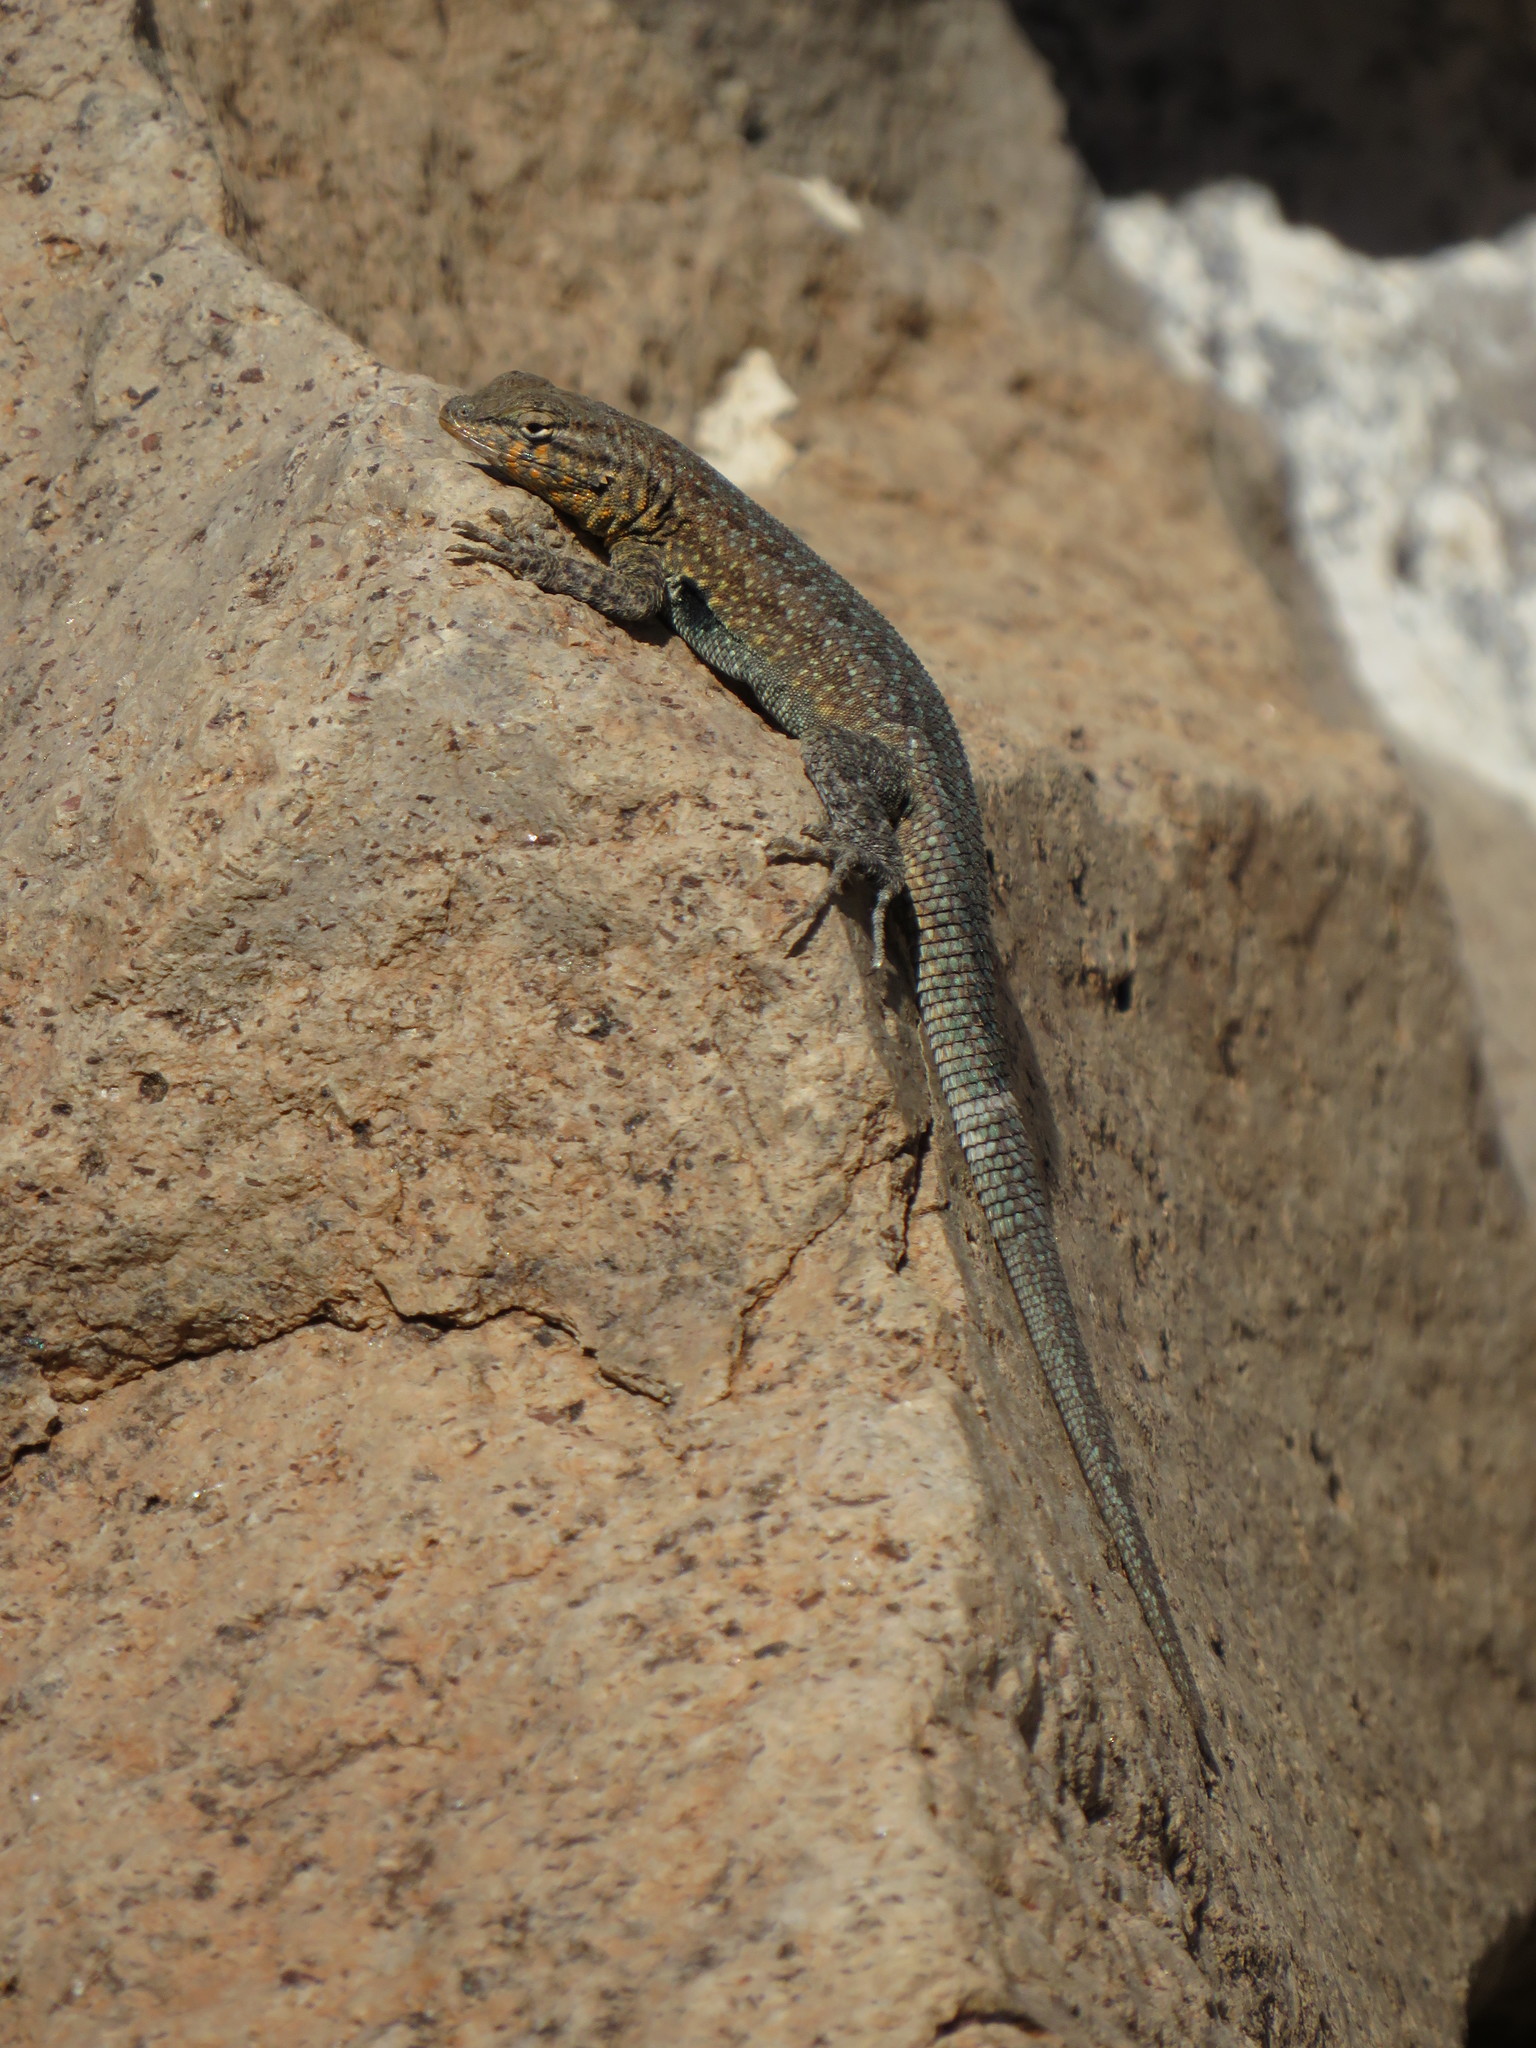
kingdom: Animalia
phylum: Chordata
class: Squamata
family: Phrynosomatidae
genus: Uta
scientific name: Uta stansburiana
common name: Side-blotched lizard
